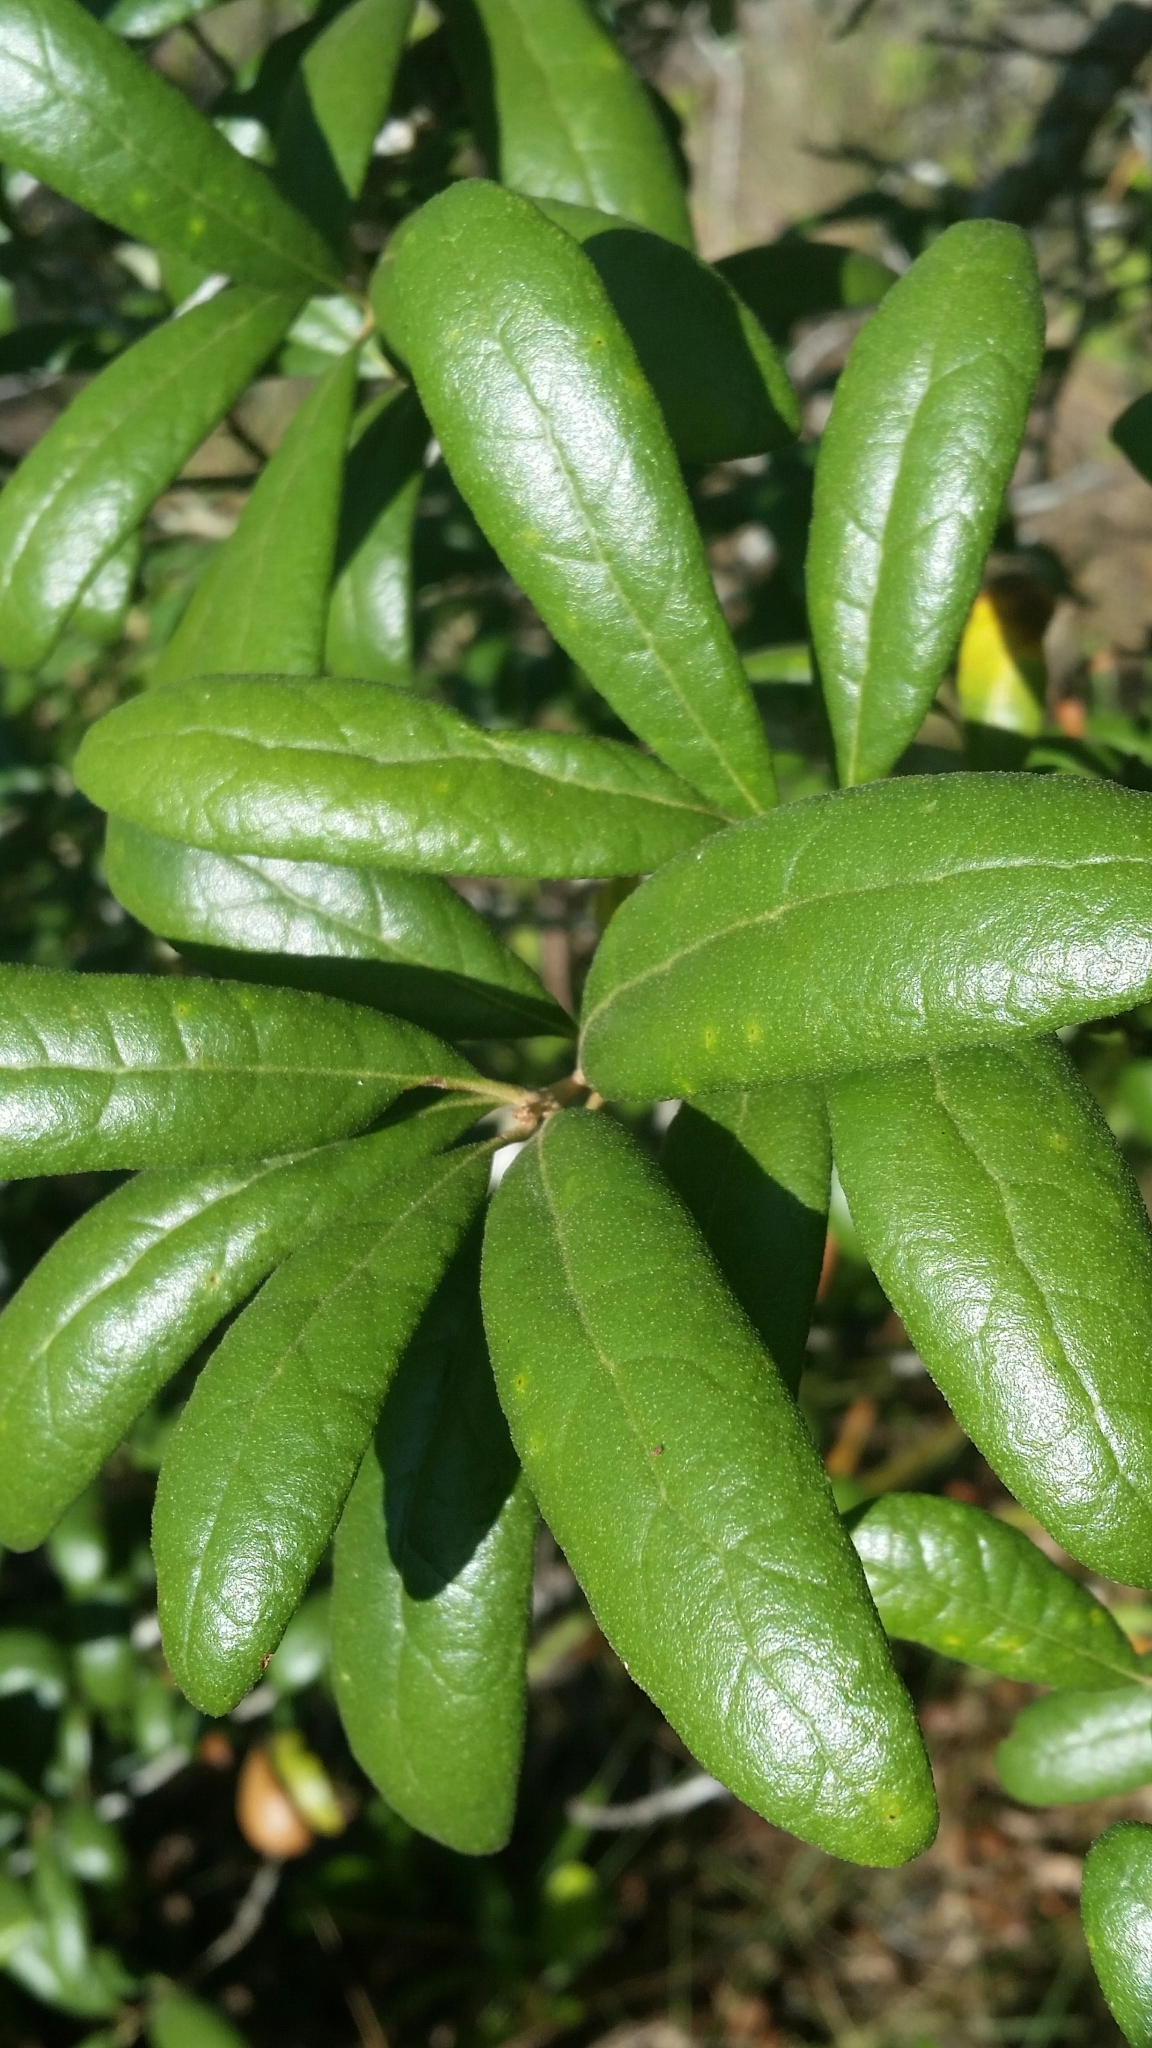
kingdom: Plantae
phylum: Tracheophyta
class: Magnoliopsida
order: Fagales
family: Fagaceae
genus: Quercus
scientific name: Quercus geminata
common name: Sand live oak
